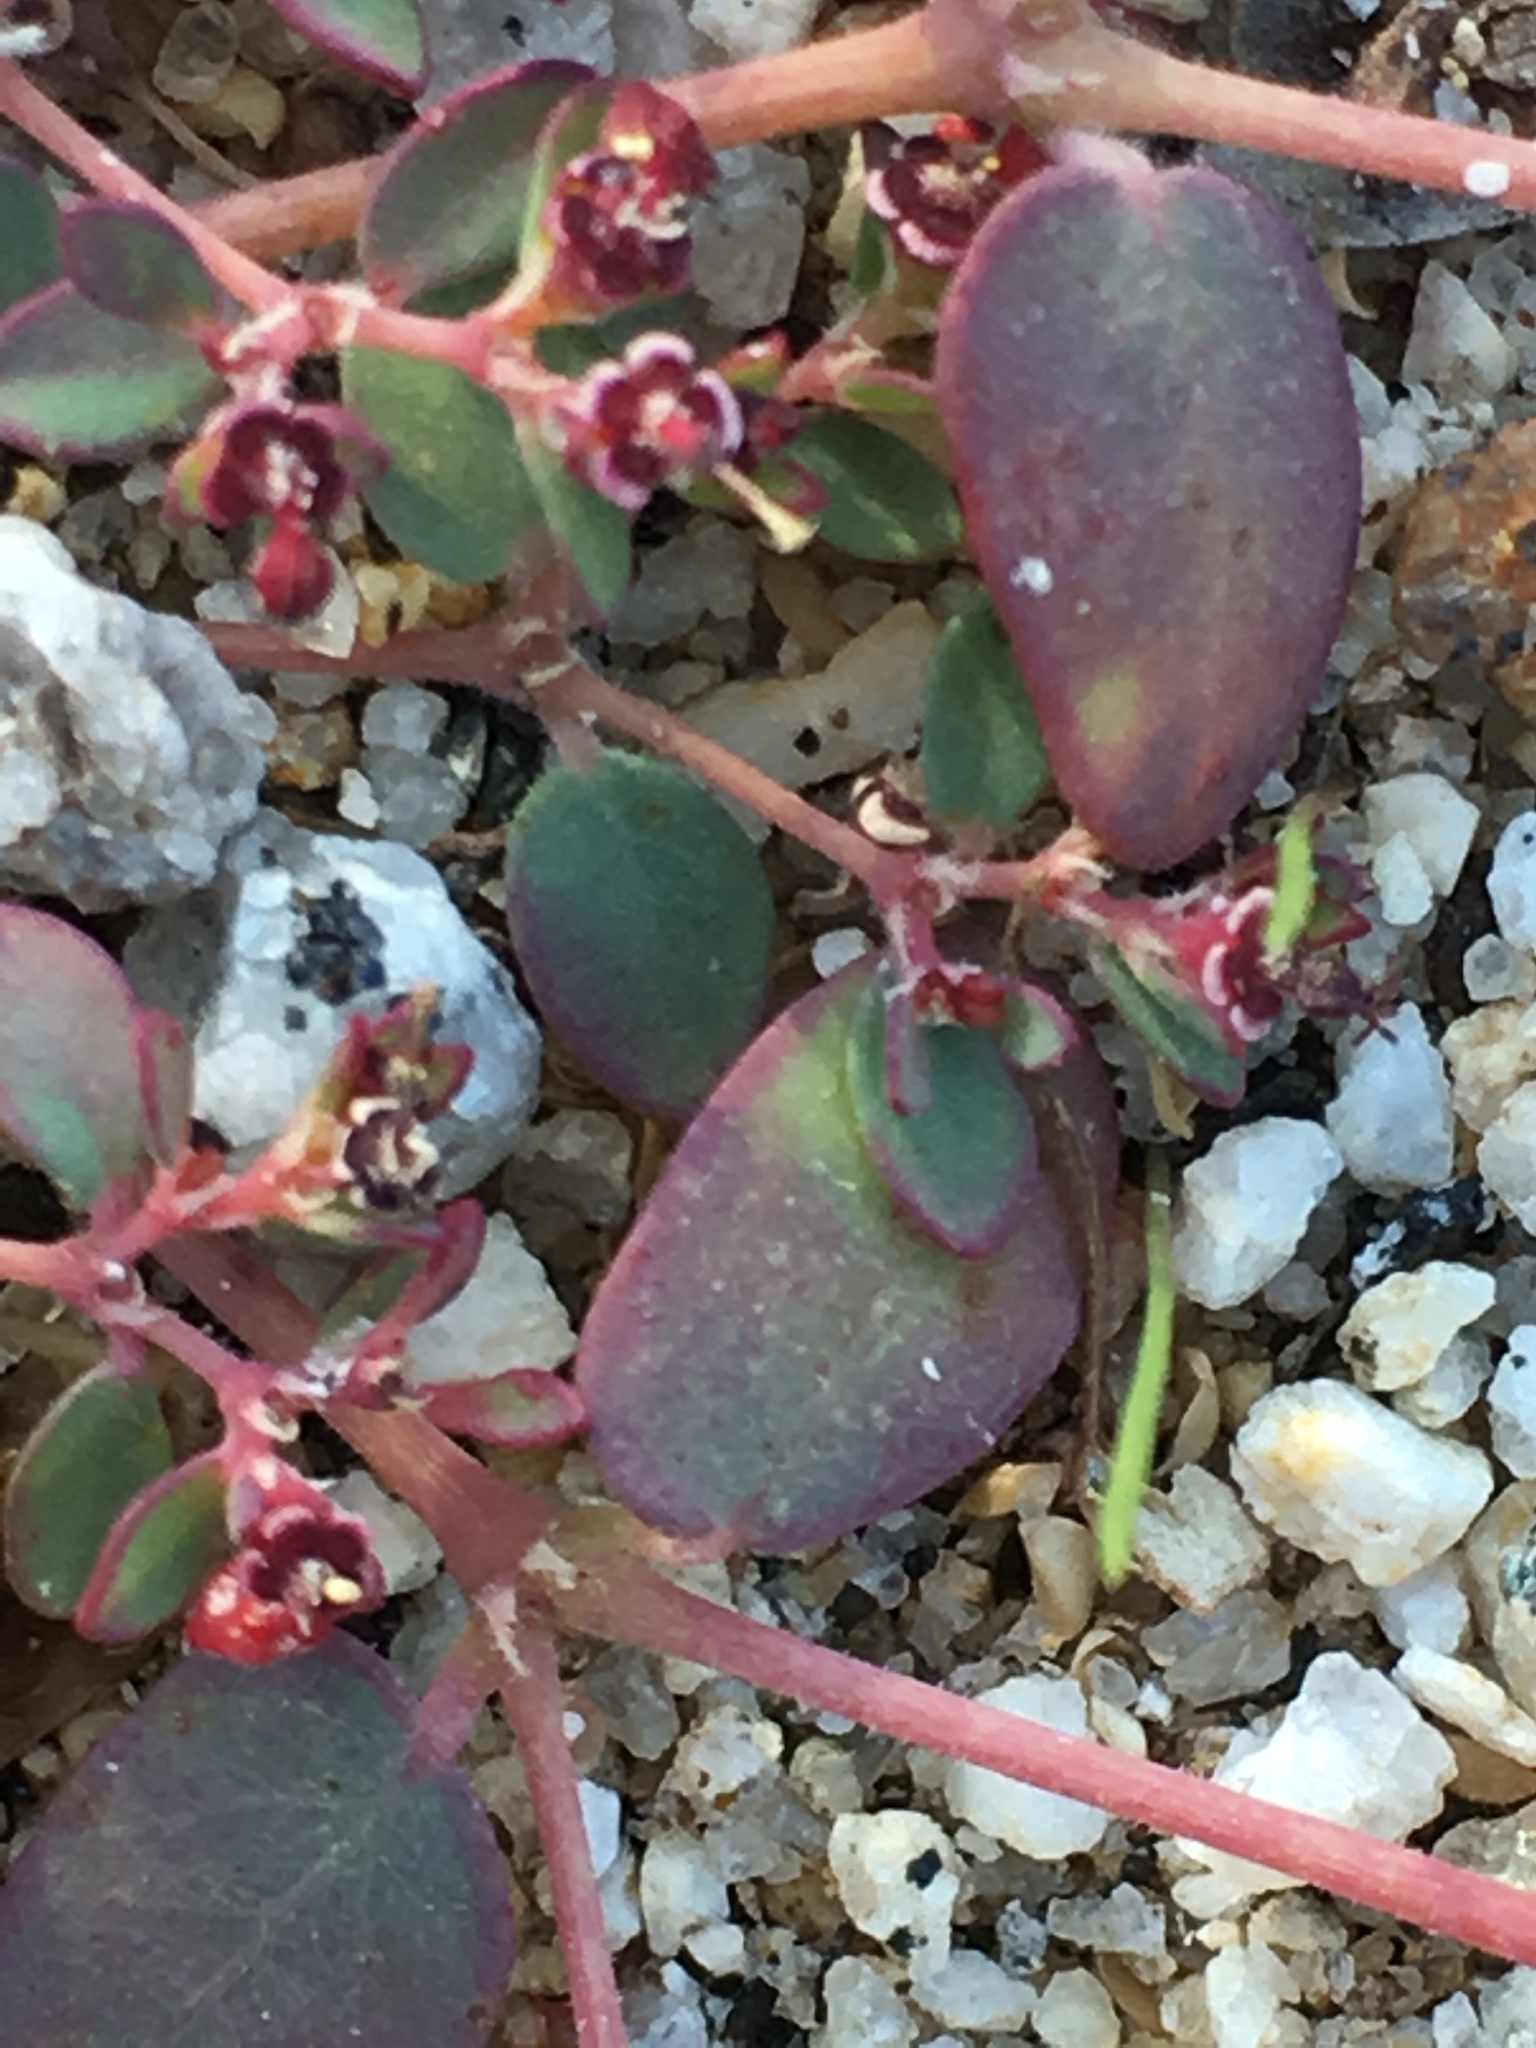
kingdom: Plantae
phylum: Tracheophyta
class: Magnoliopsida
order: Malpighiales
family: Euphorbiaceae
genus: Euphorbia
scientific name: Euphorbia polycarpa
